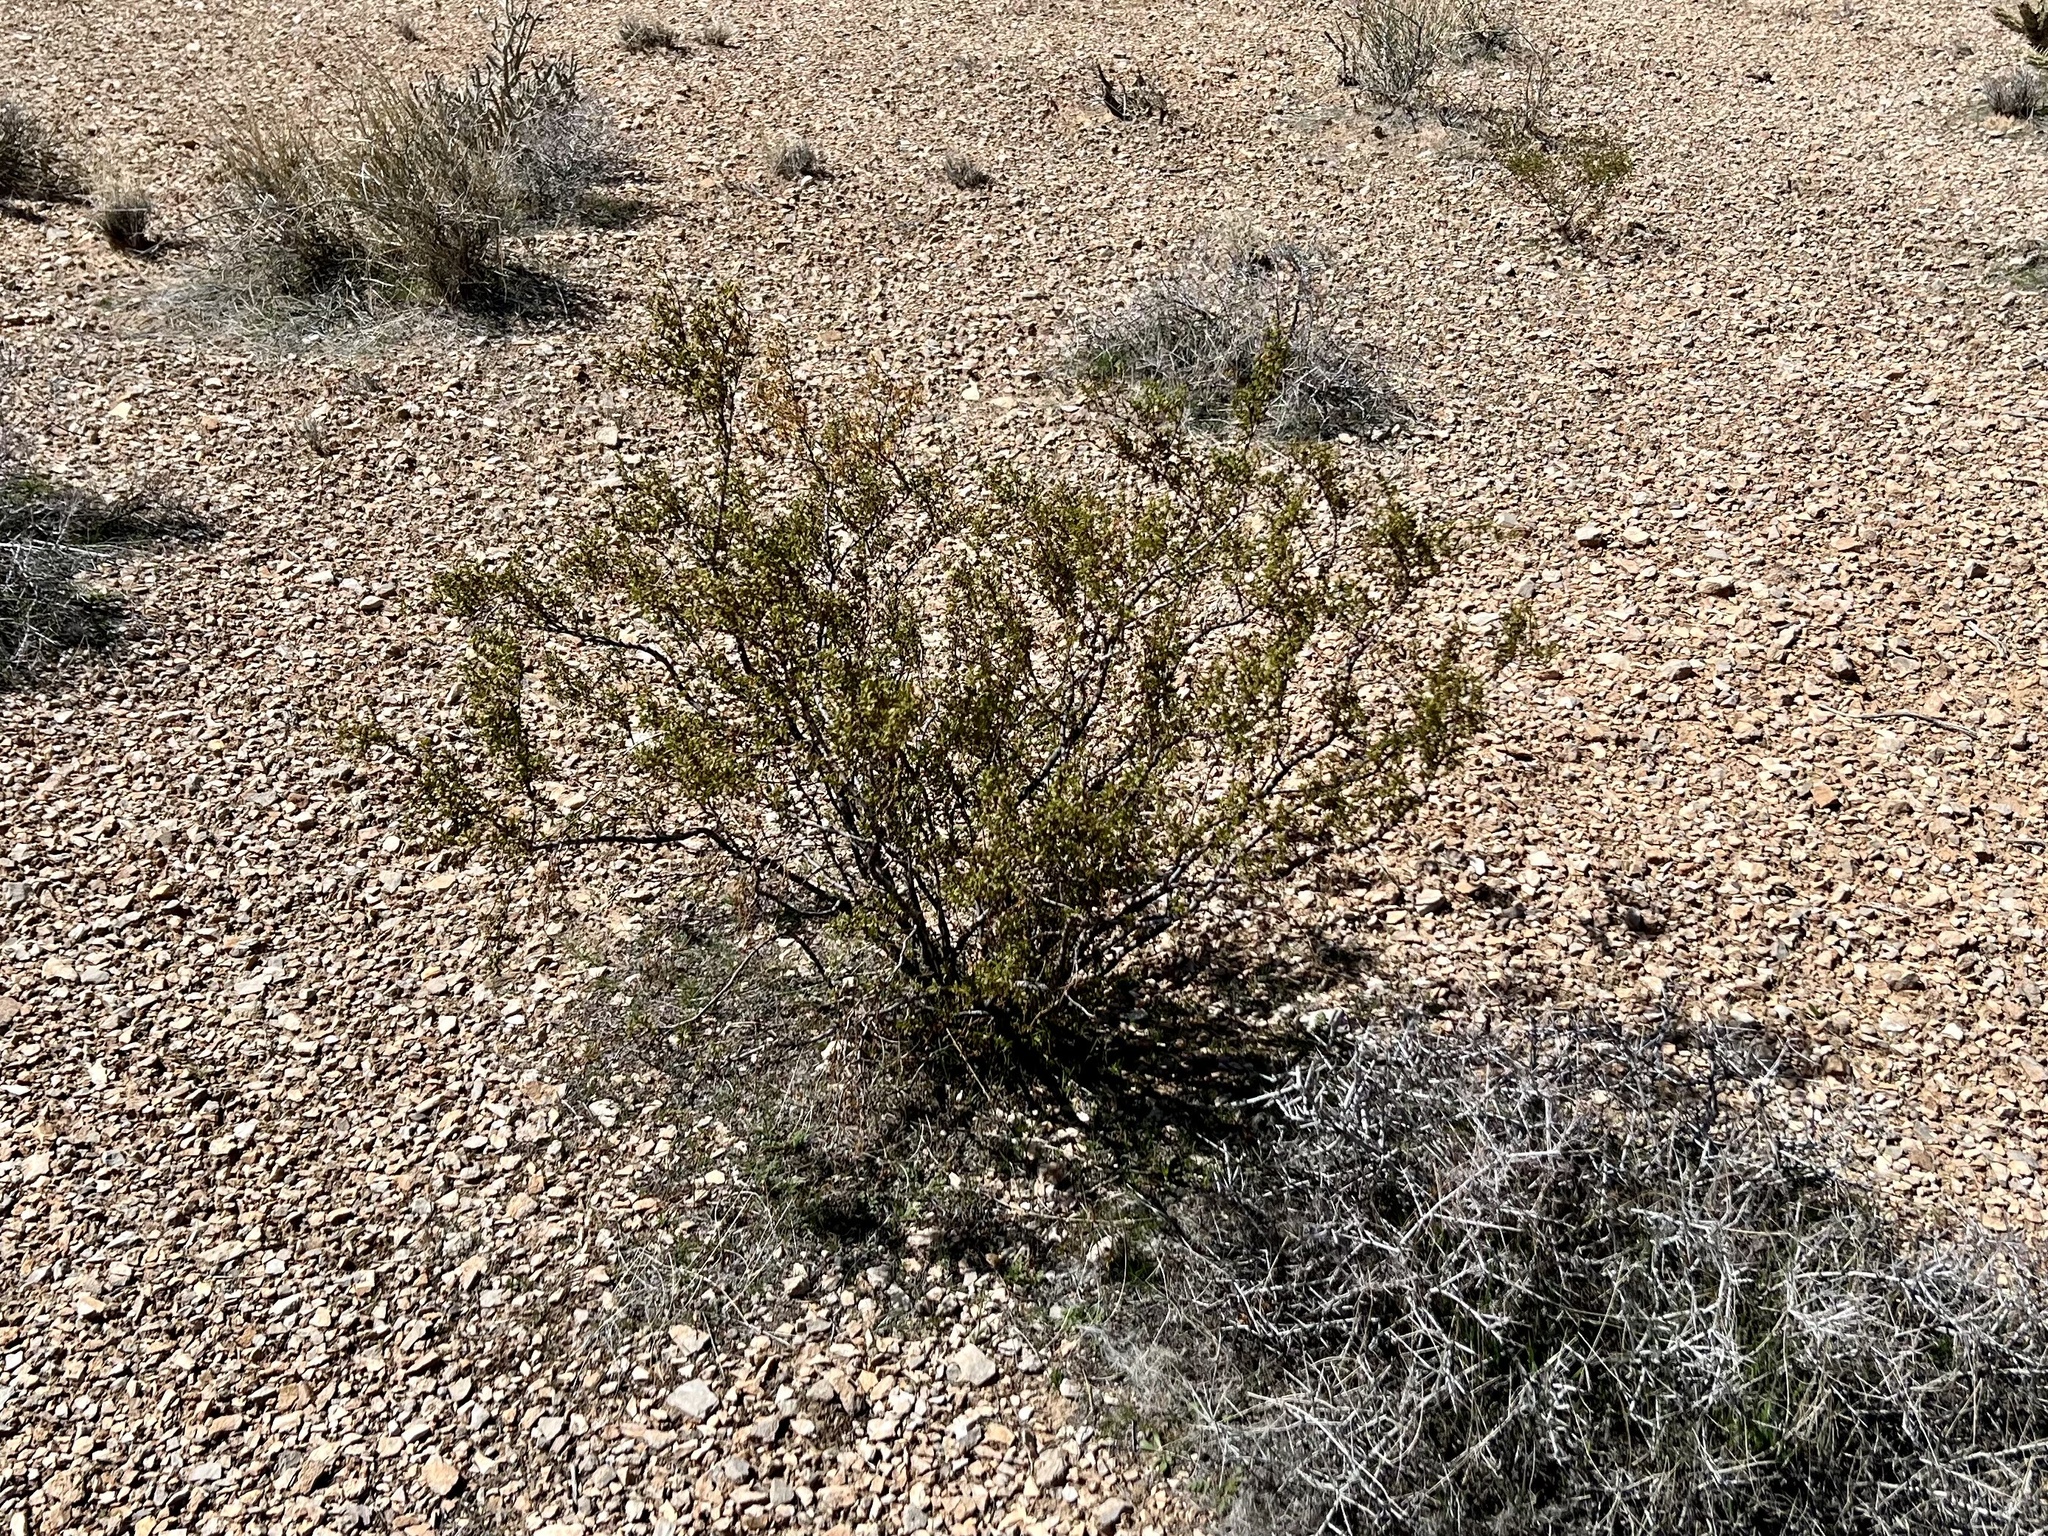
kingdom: Plantae
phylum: Tracheophyta
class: Magnoliopsida
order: Zygophyllales
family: Zygophyllaceae
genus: Larrea
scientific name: Larrea tridentata
